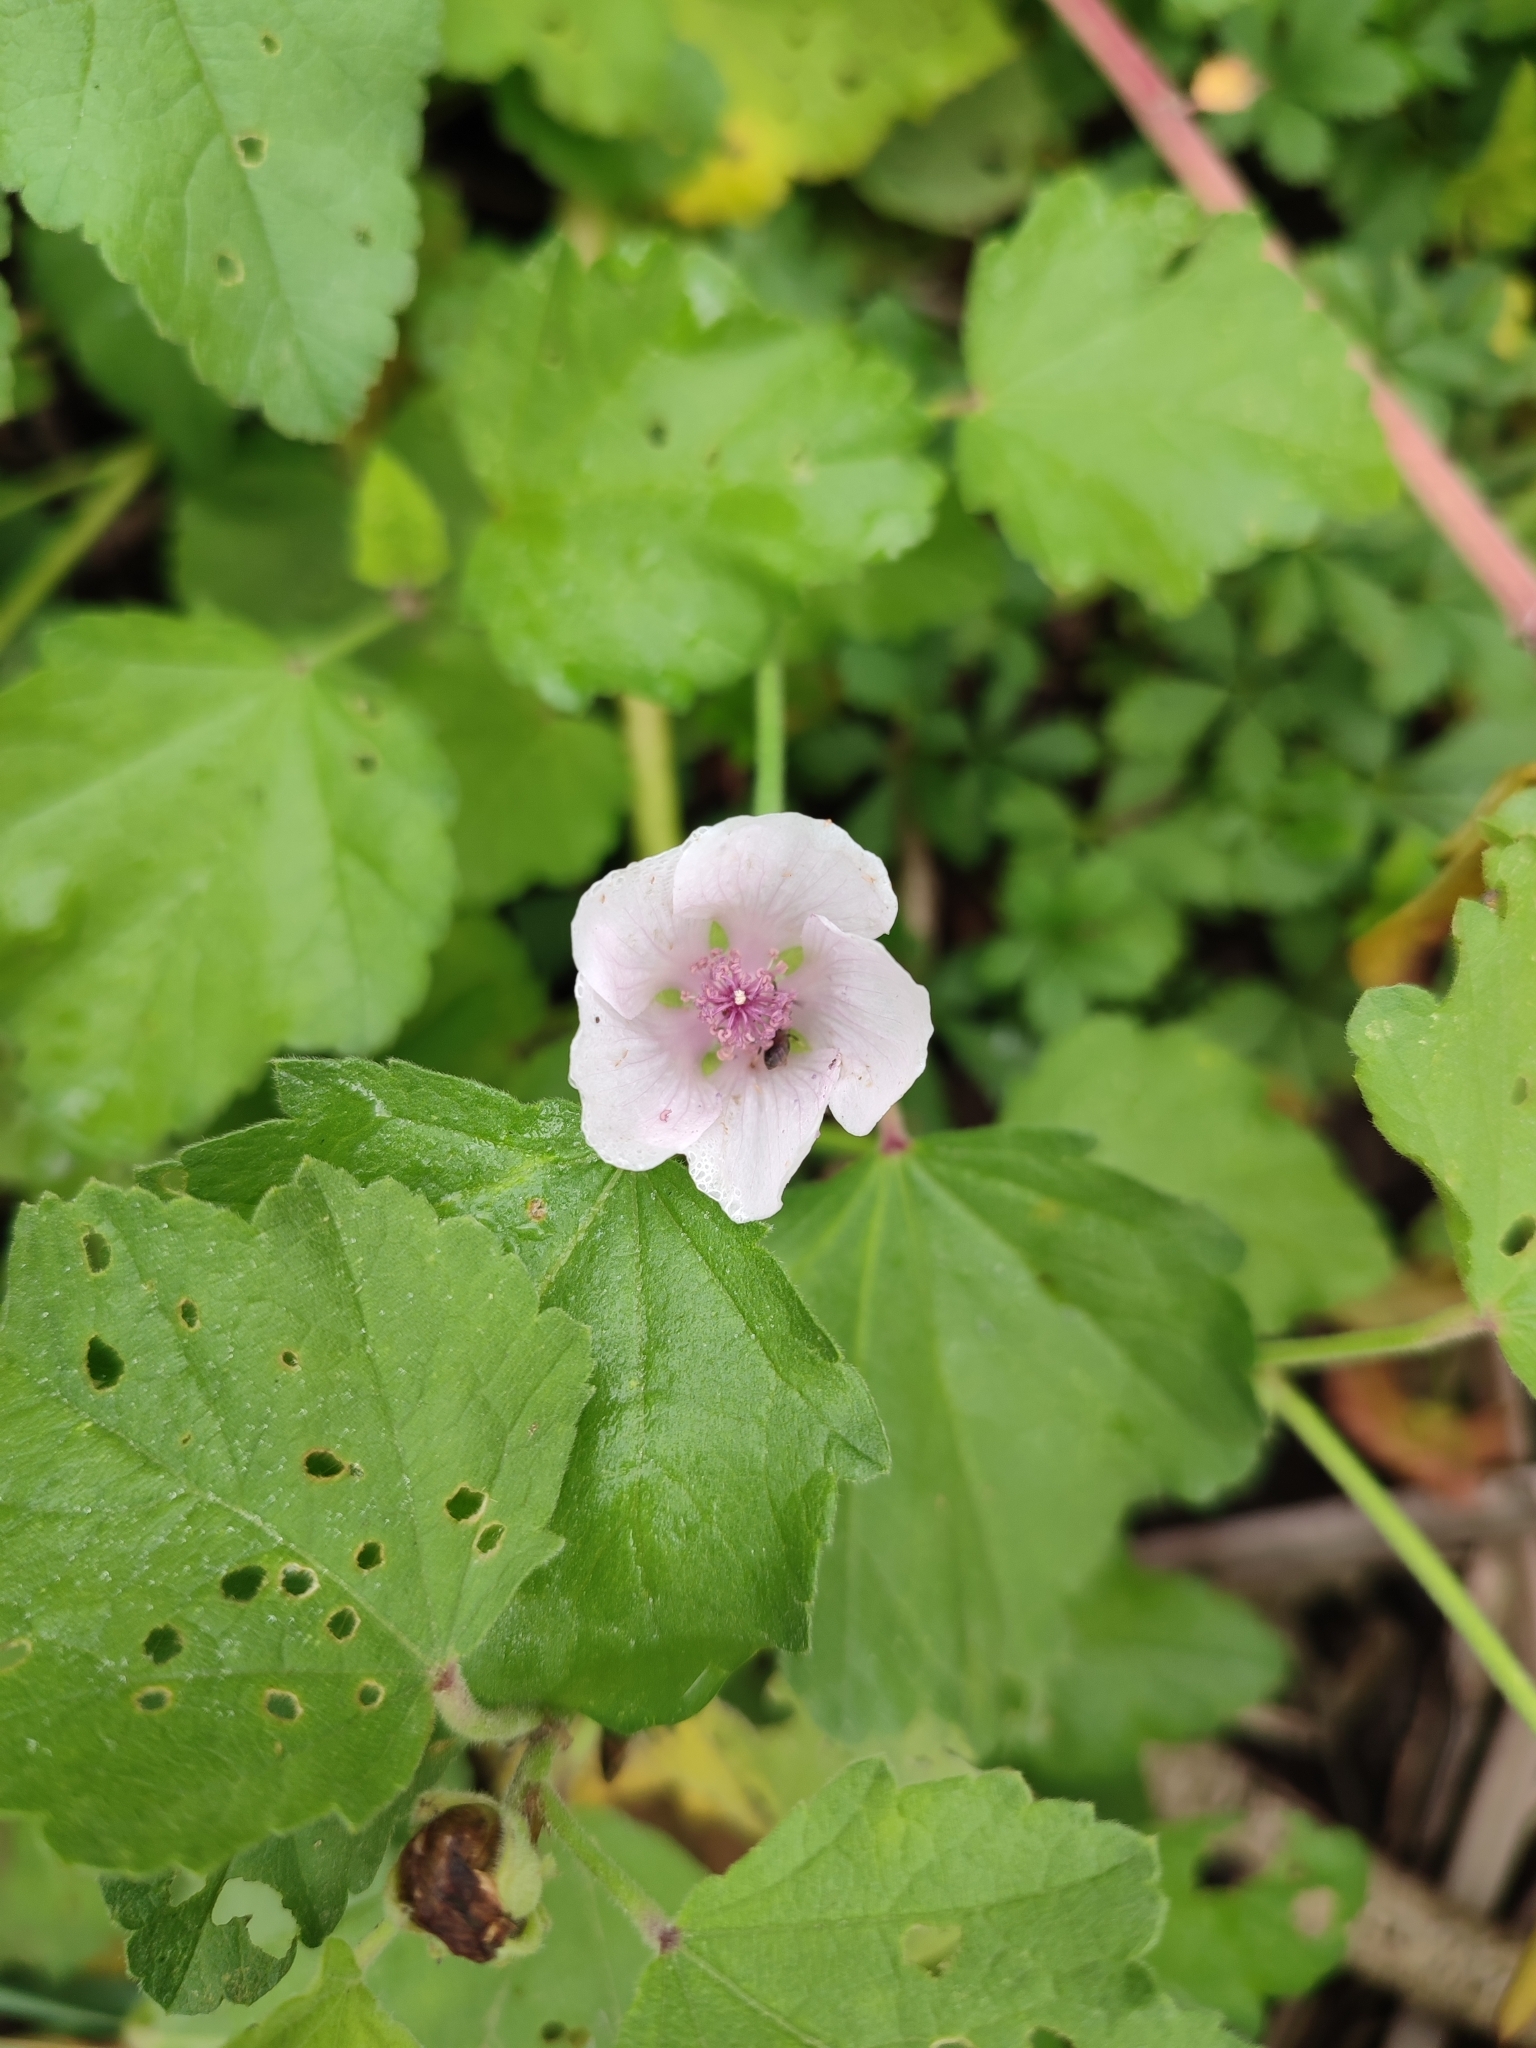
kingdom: Plantae
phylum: Tracheophyta
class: Magnoliopsida
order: Malvales
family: Malvaceae
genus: Althaea
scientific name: Althaea officinalis
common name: Marsh-mallow
